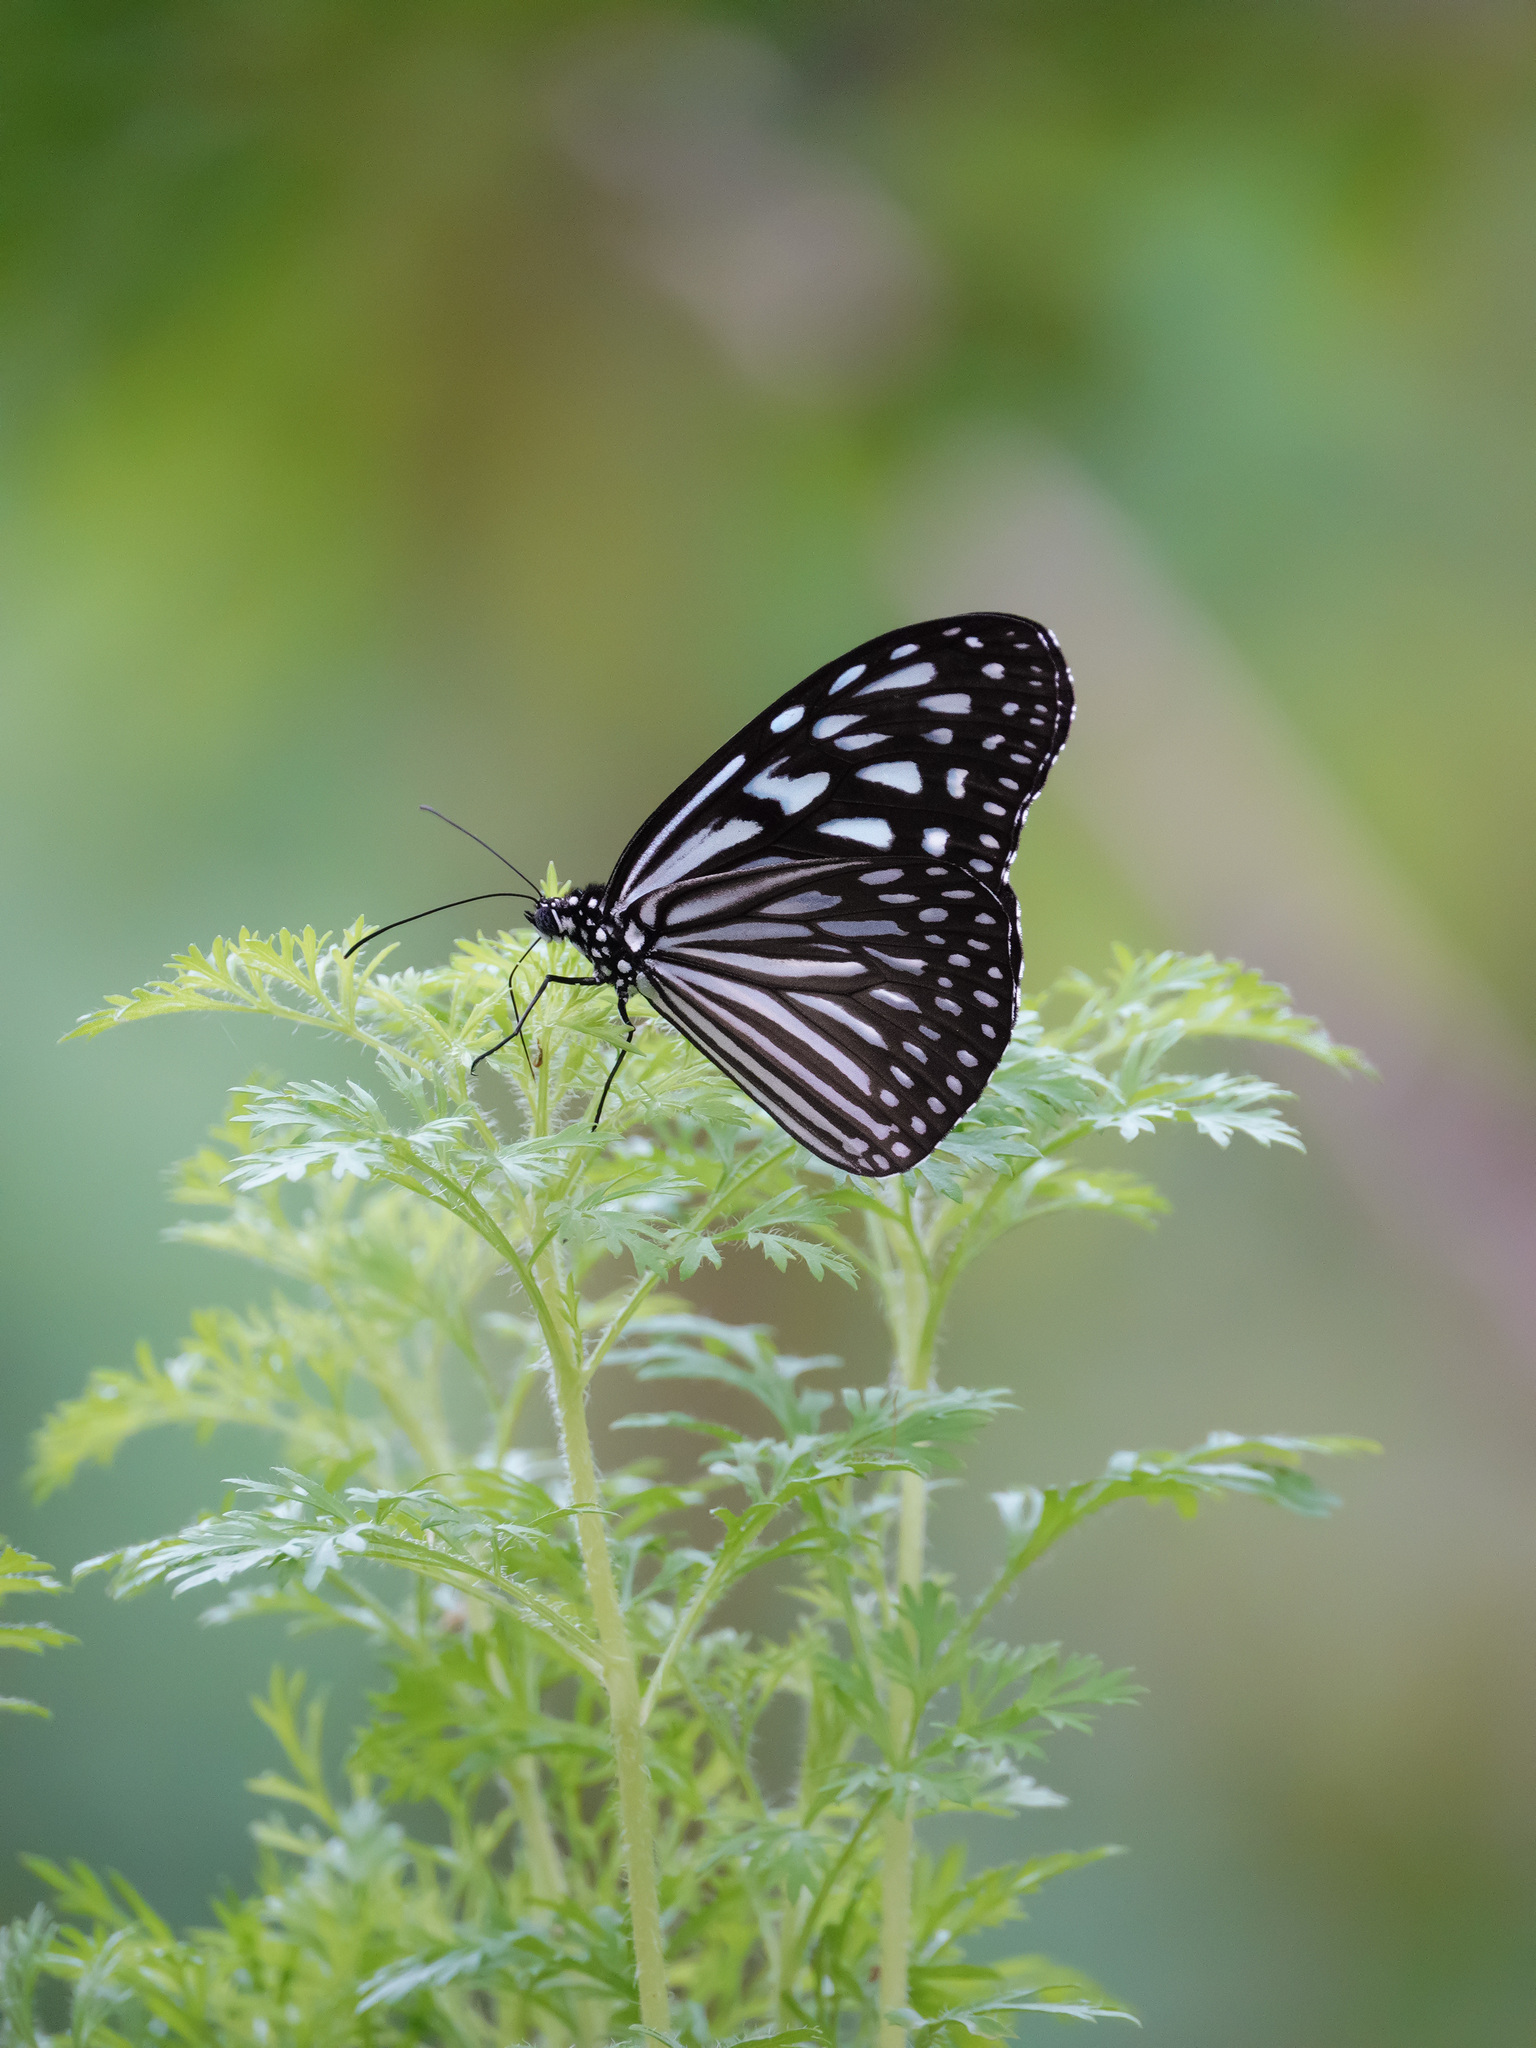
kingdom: Animalia
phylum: Arthropoda
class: Insecta
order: Lepidoptera
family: Nymphalidae
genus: Ideopsis
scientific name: Ideopsis vulgaris
